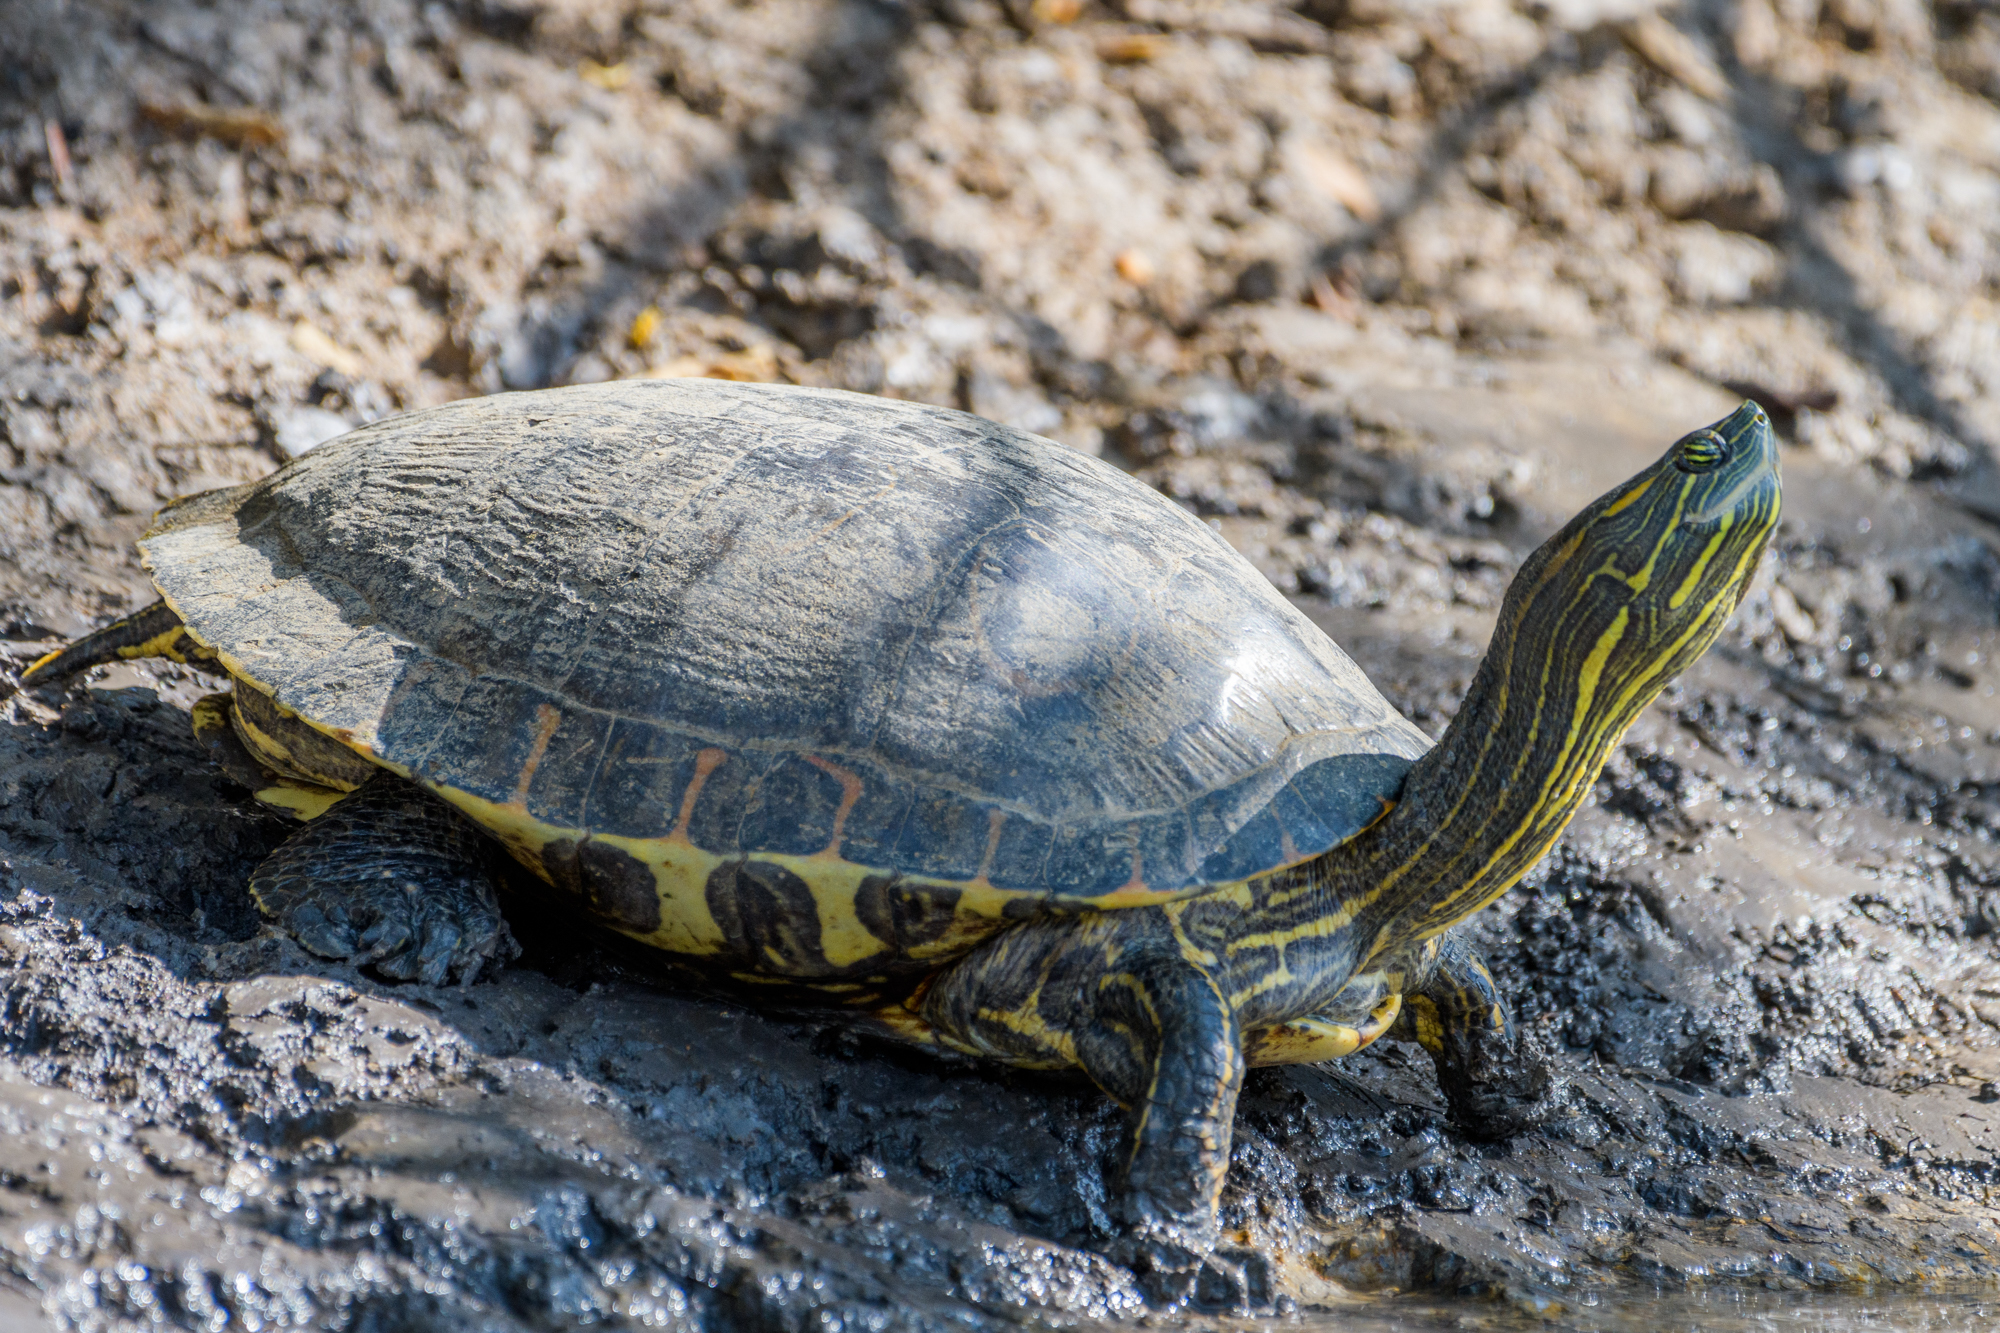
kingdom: Animalia
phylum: Chordata
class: Testudines
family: Emydidae
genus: Trachemys
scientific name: Trachemys venusta
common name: Mesoamerican slider
